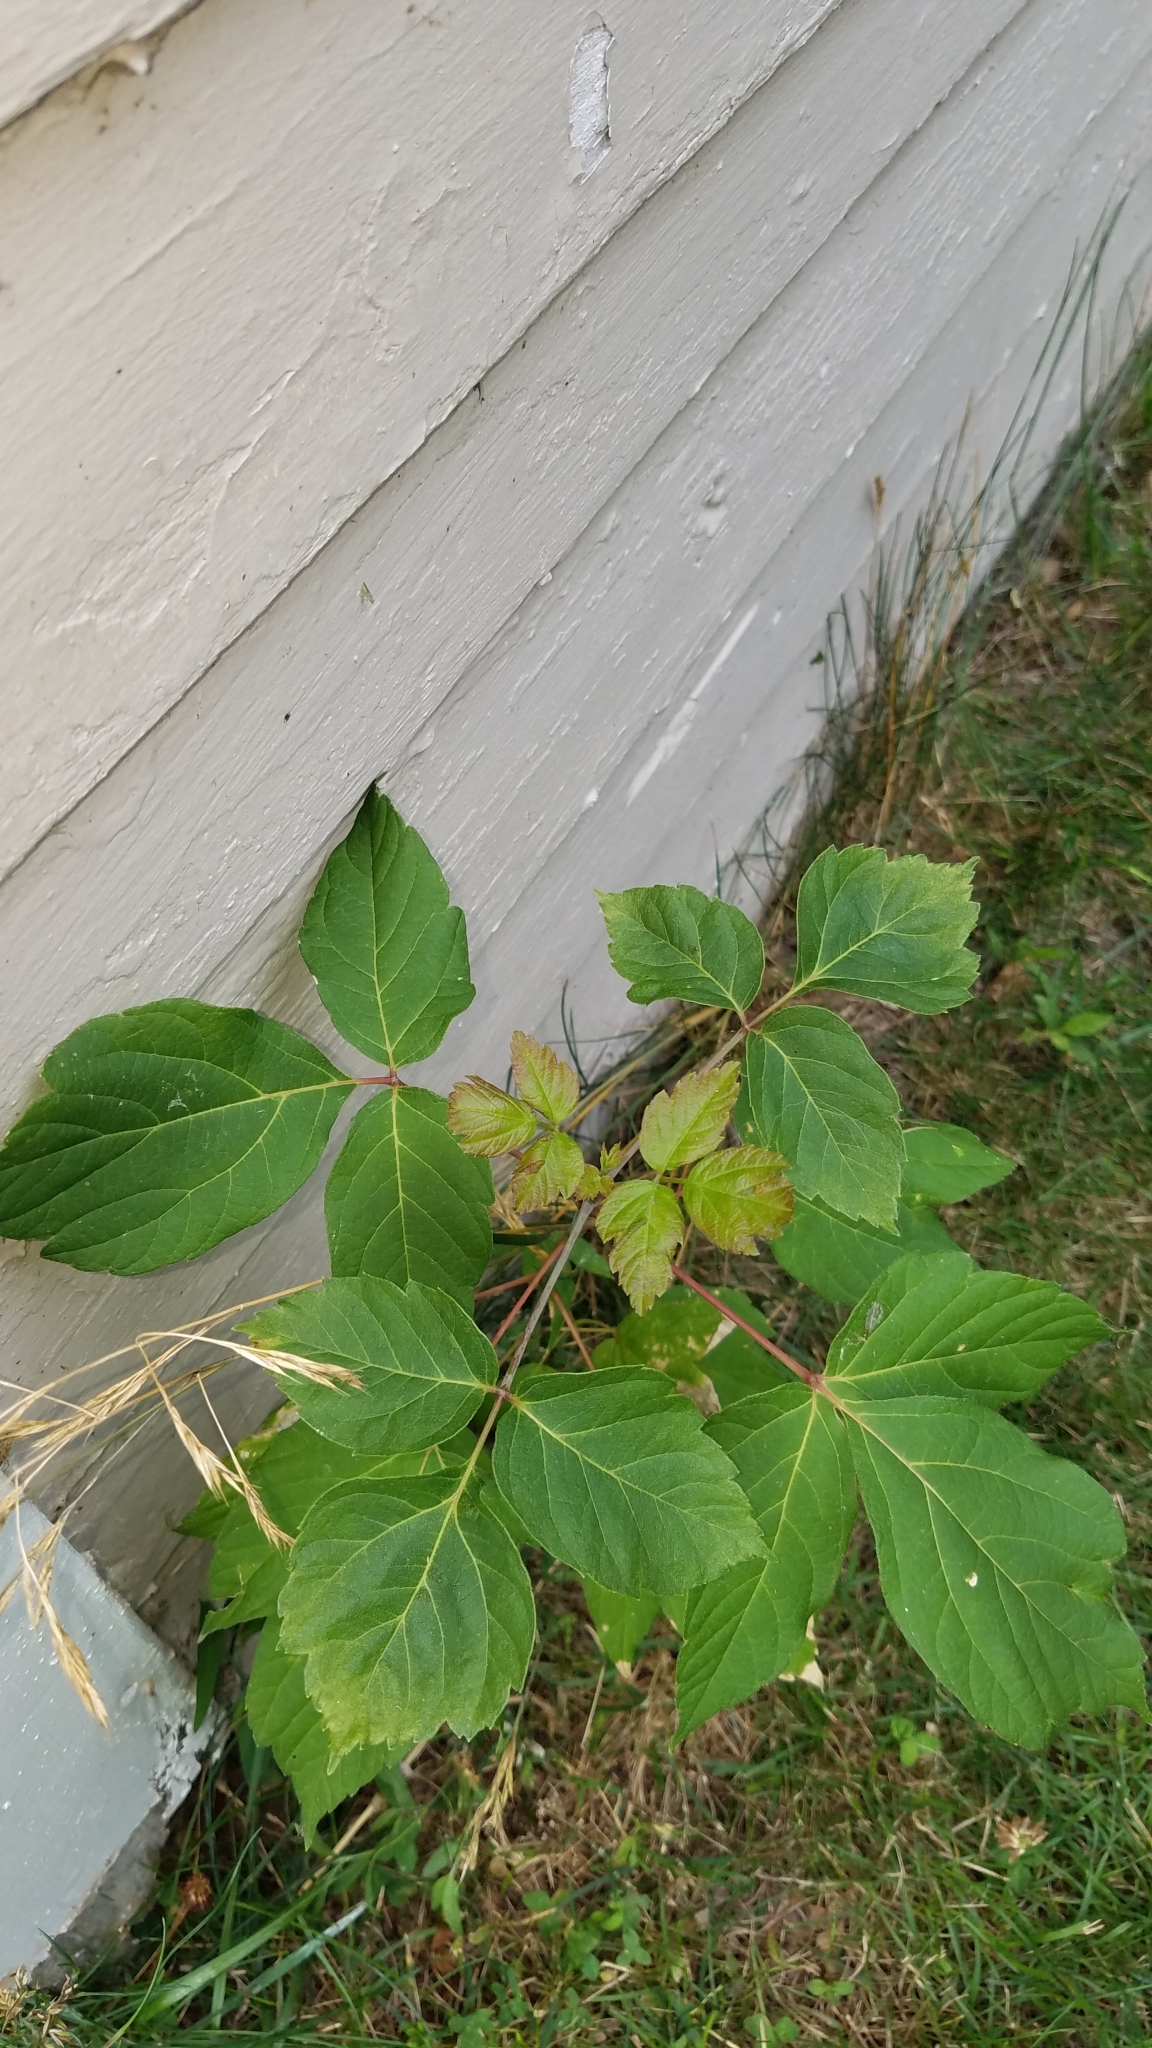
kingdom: Plantae
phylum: Tracheophyta
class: Magnoliopsida
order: Sapindales
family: Sapindaceae
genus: Acer
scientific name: Acer negundo
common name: Ashleaf maple
